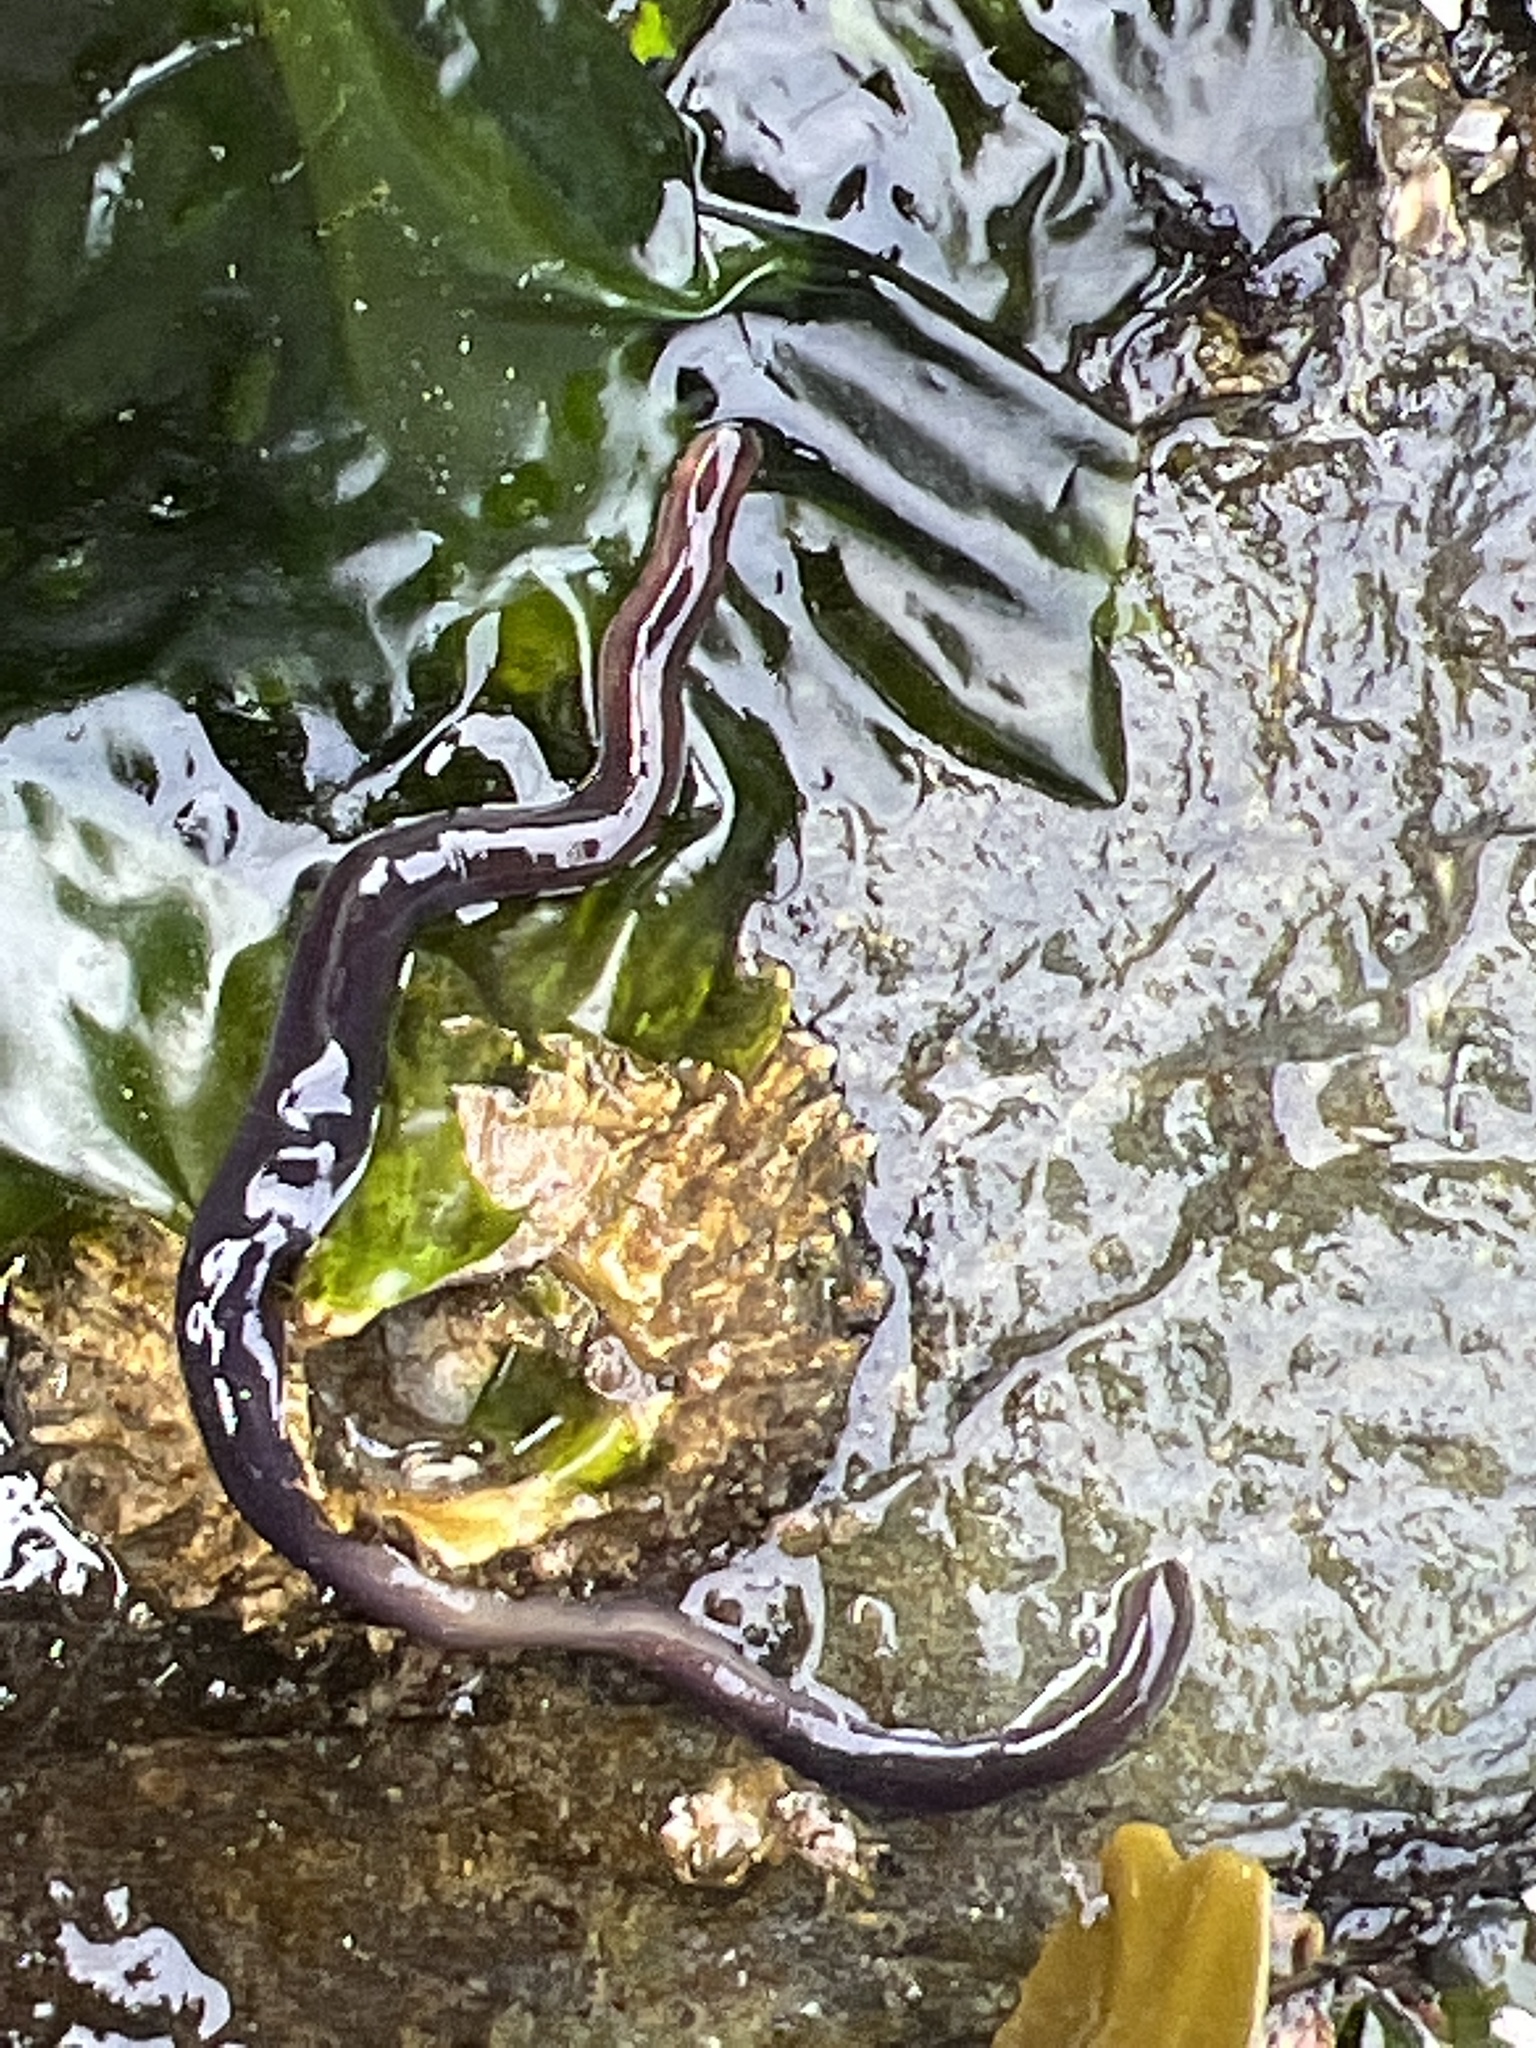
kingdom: Animalia
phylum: Nemertea
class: Hoplonemertea
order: Monostilifera
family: Neesiidae
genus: Paranemertes
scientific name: Paranemertes peregrina
